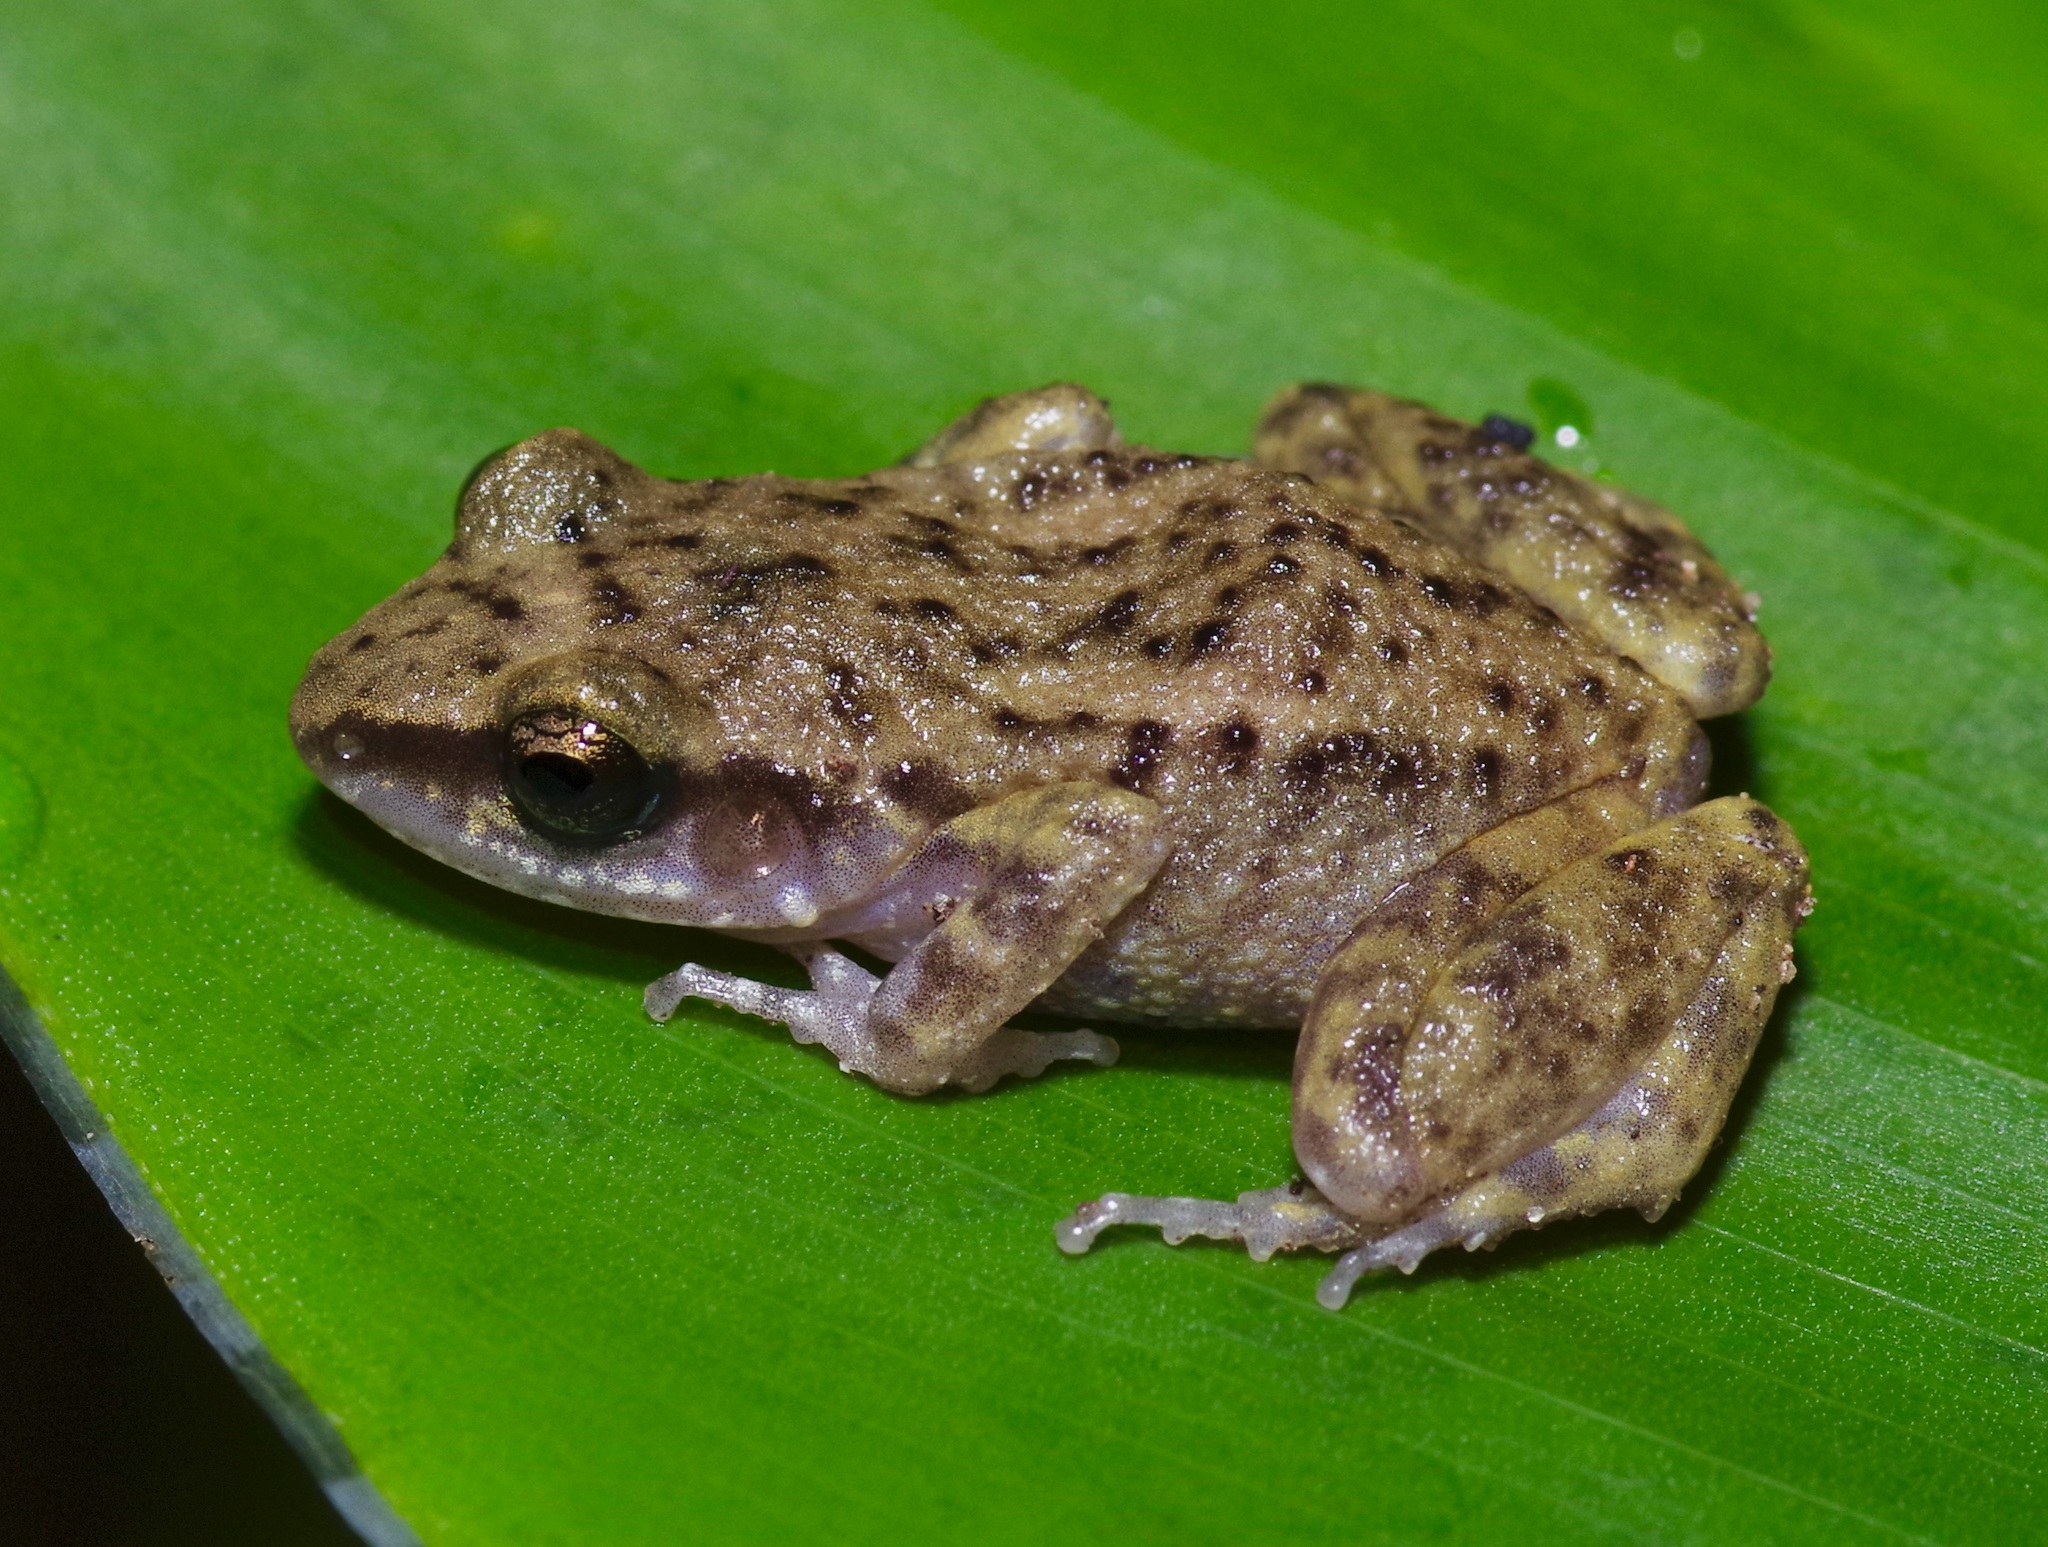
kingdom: Animalia
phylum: Chordata
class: Amphibia
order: Anura
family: Eleutherodactylidae
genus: Eleutherodactylus
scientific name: Eleutherodactylus campi
